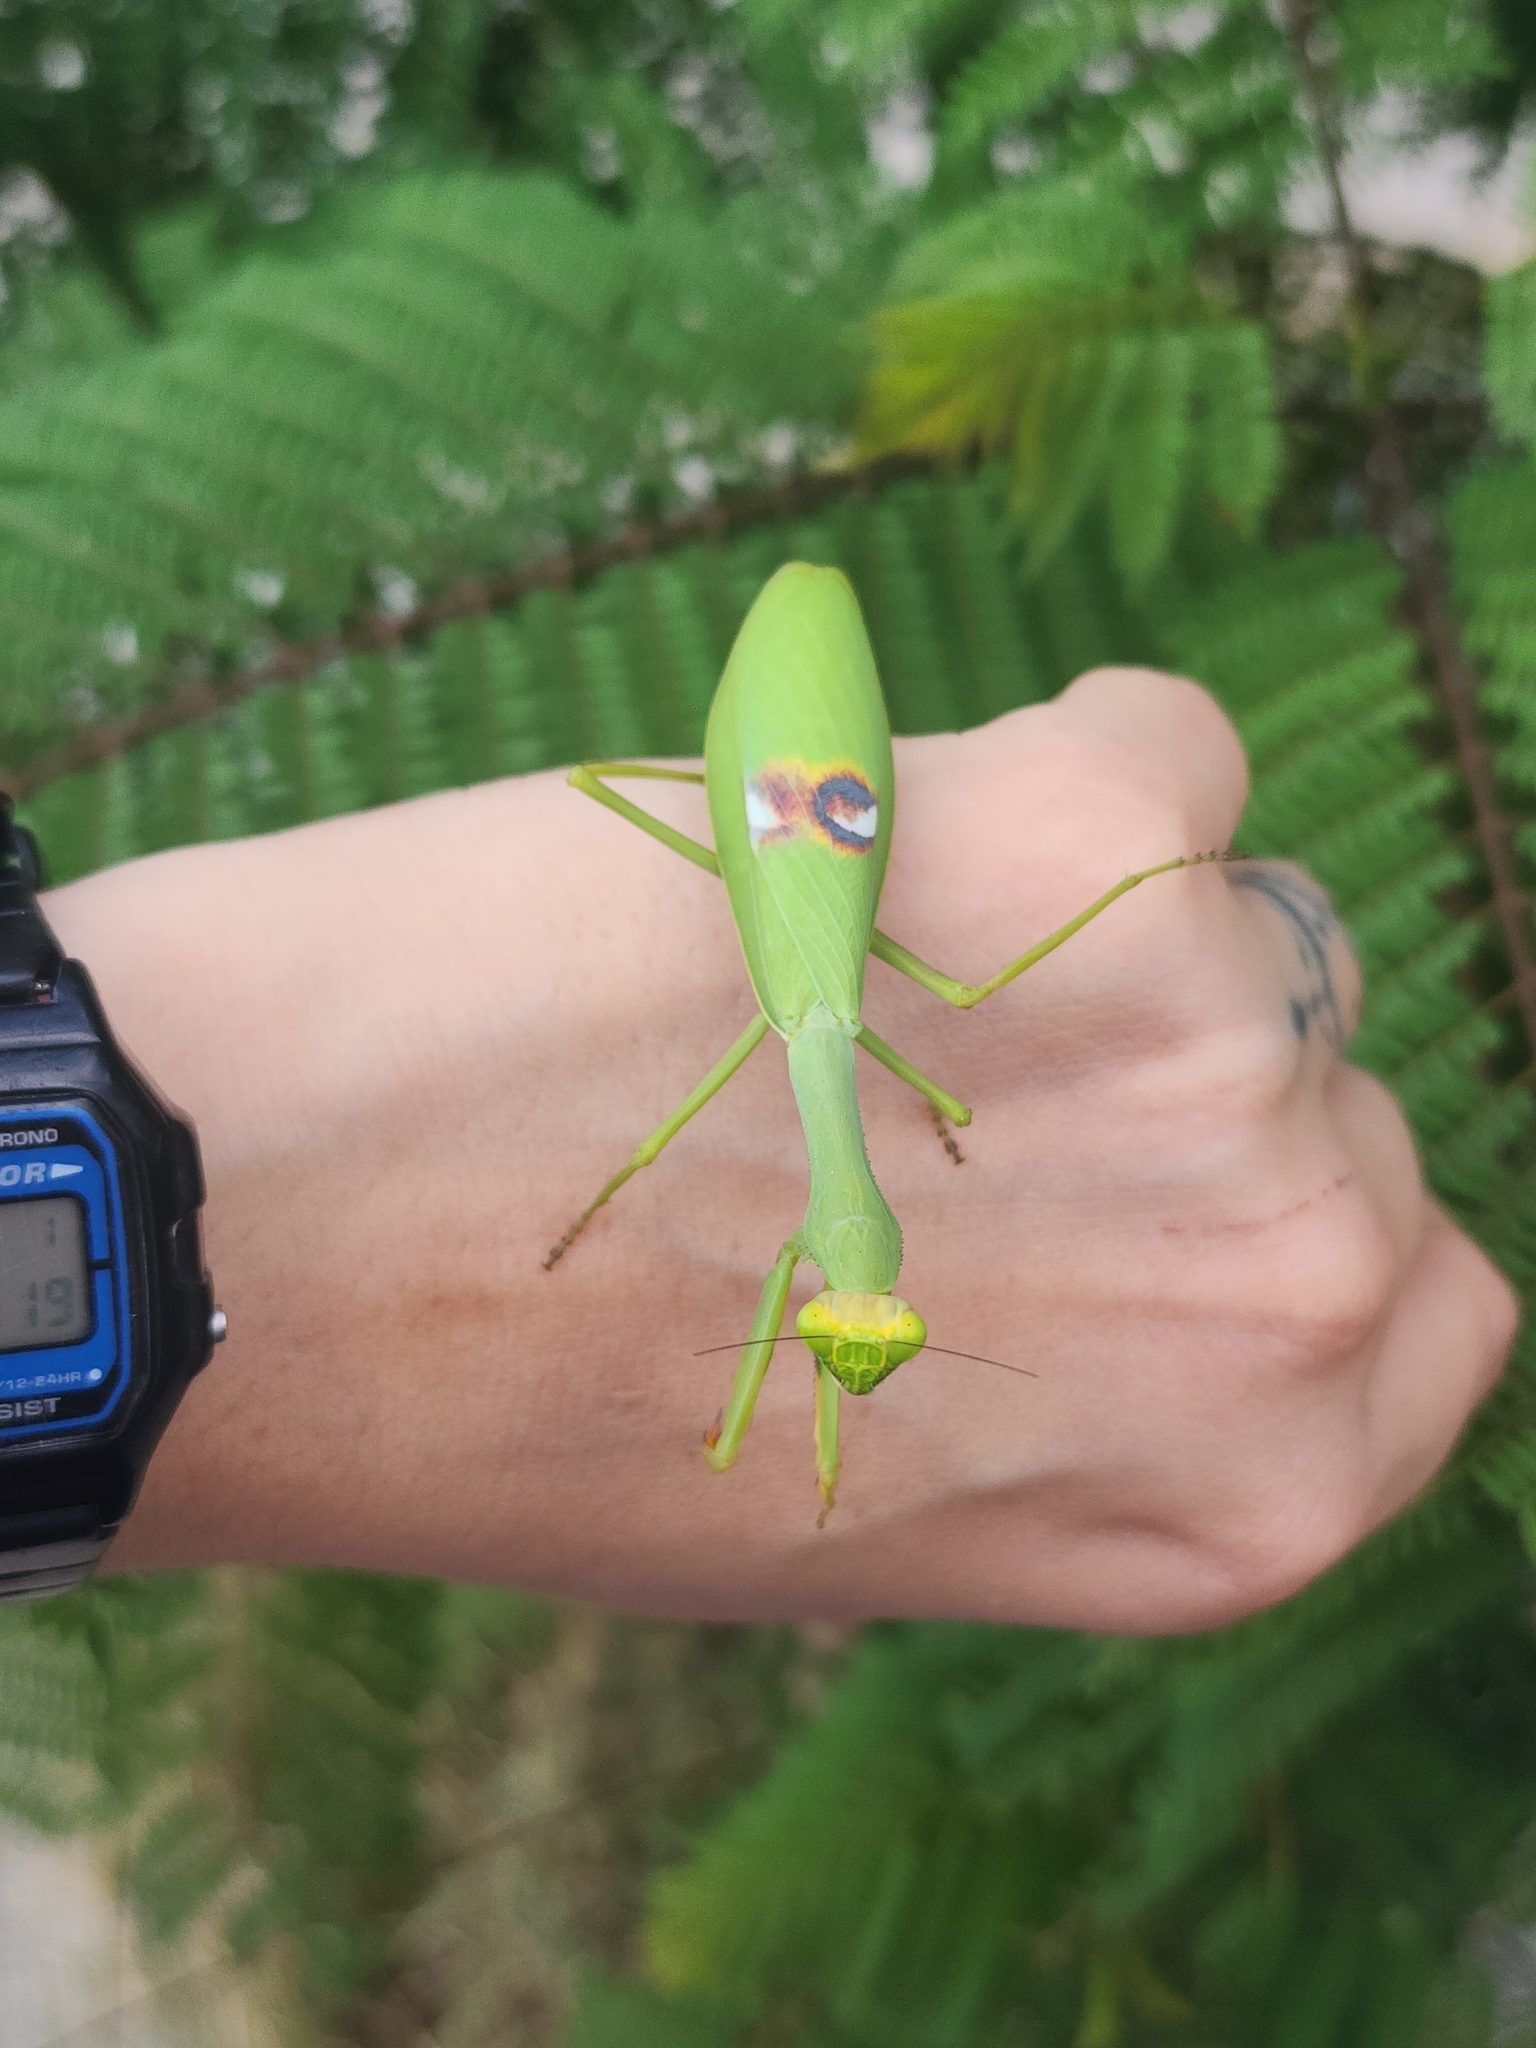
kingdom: Animalia
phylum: Arthropoda
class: Insecta
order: Mantodea
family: Mantidae
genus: Stagmatoptera
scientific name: Stagmatoptera hyaloptera
